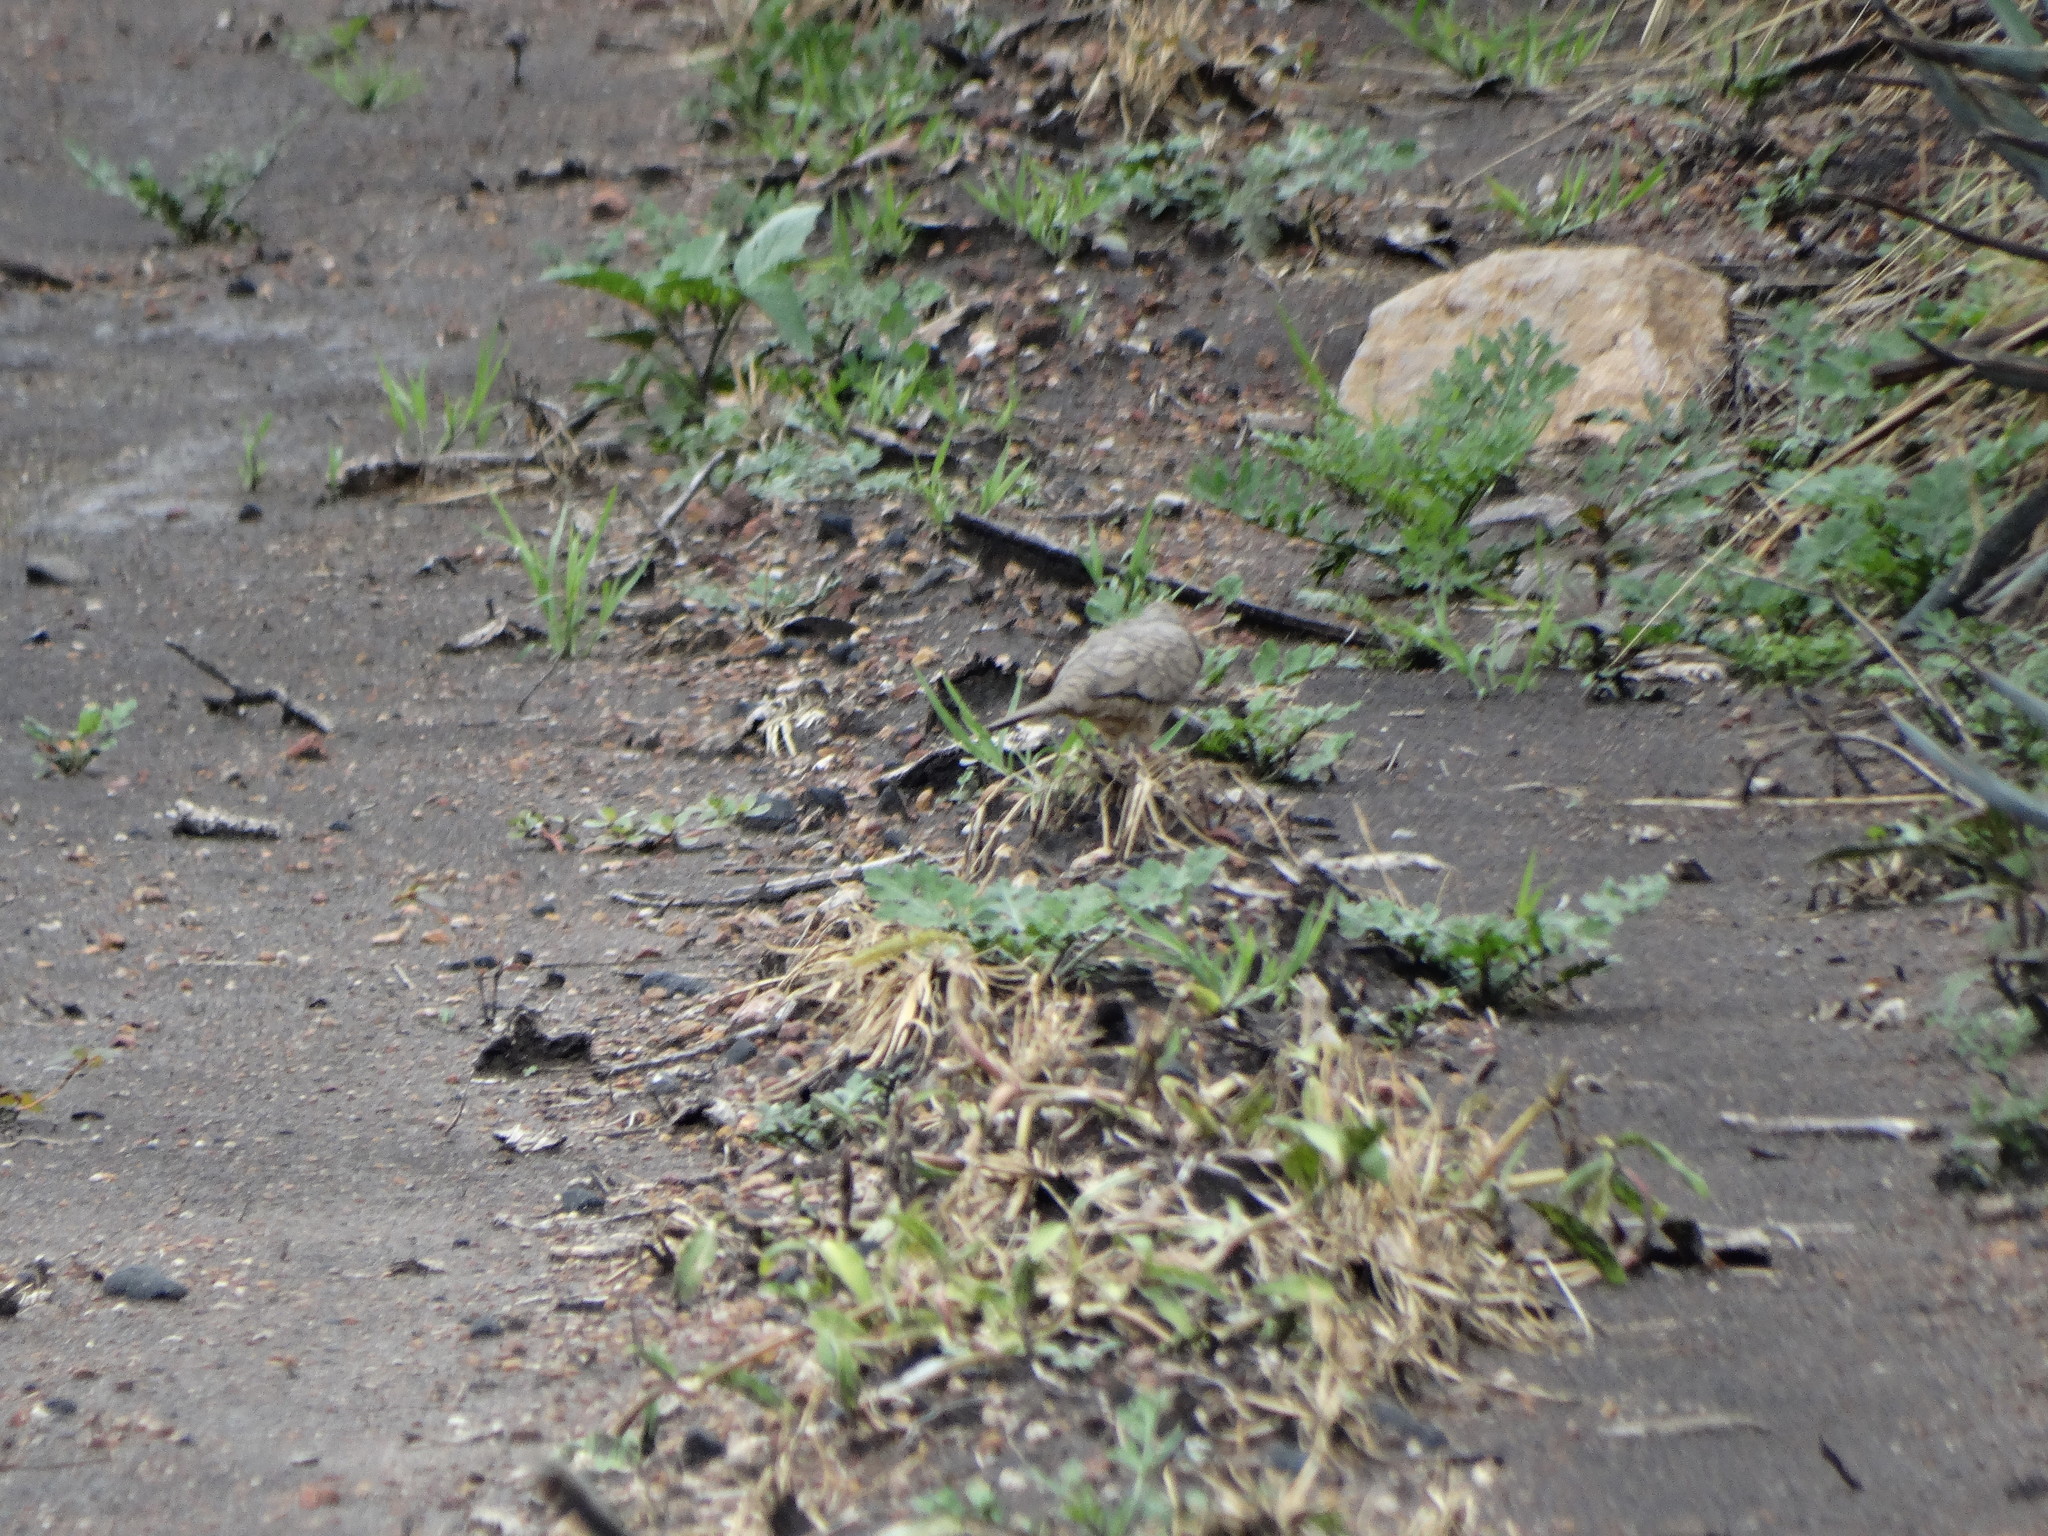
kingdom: Animalia
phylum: Chordata
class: Aves
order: Columbiformes
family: Columbidae
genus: Columbina
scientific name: Columbina inca
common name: Inca dove
